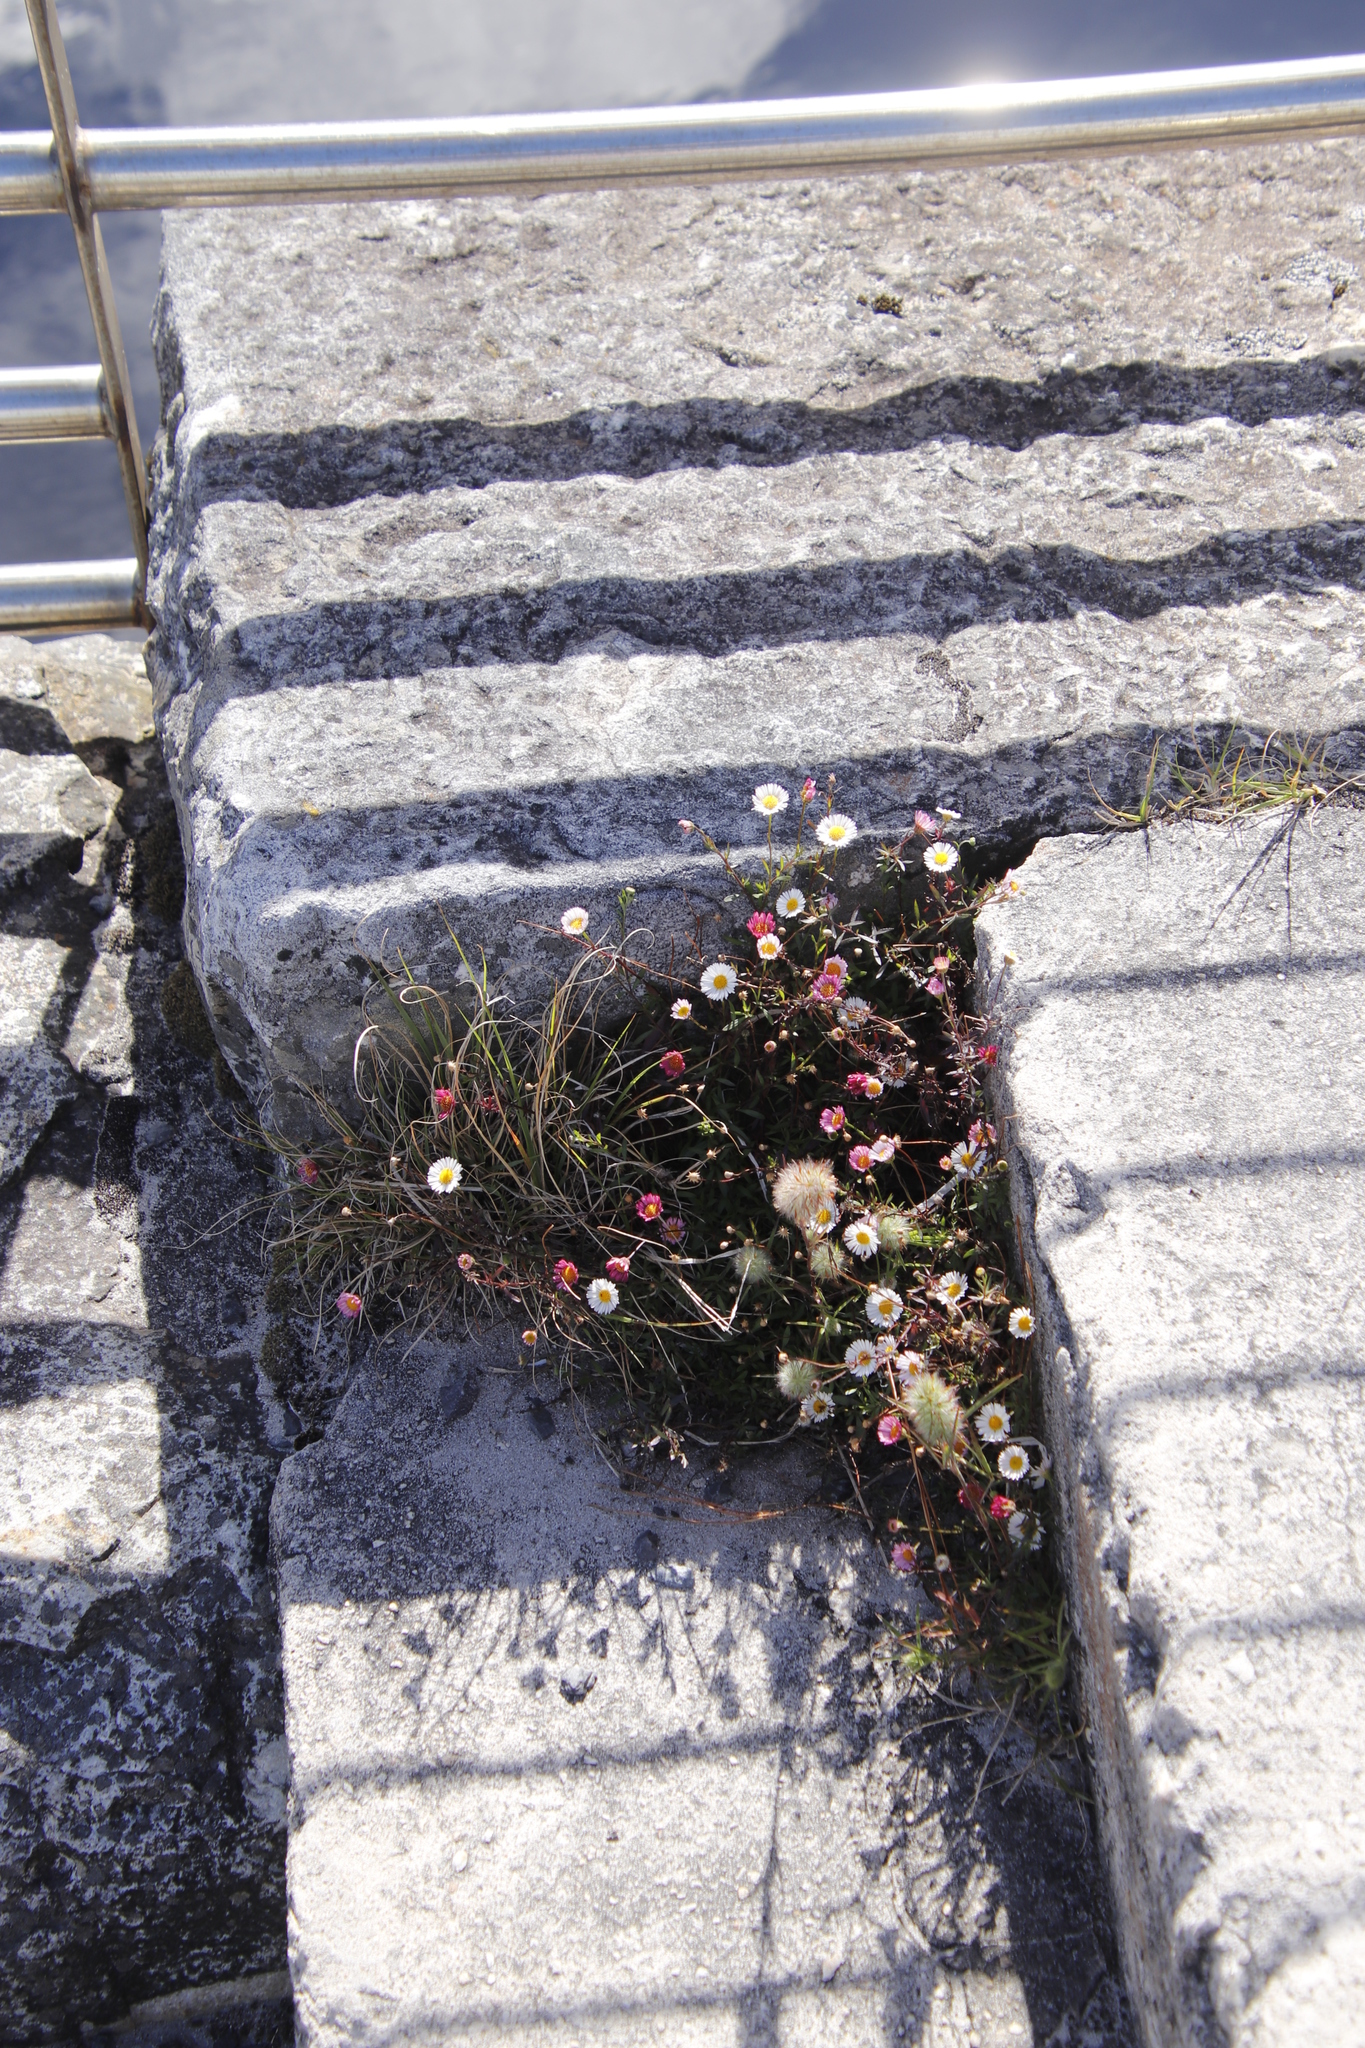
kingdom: Plantae
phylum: Tracheophyta
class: Magnoliopsida
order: Asterales
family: Asteraceae
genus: Erigeron
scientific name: Erigeron karvinskianus
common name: Mexican fleabane
